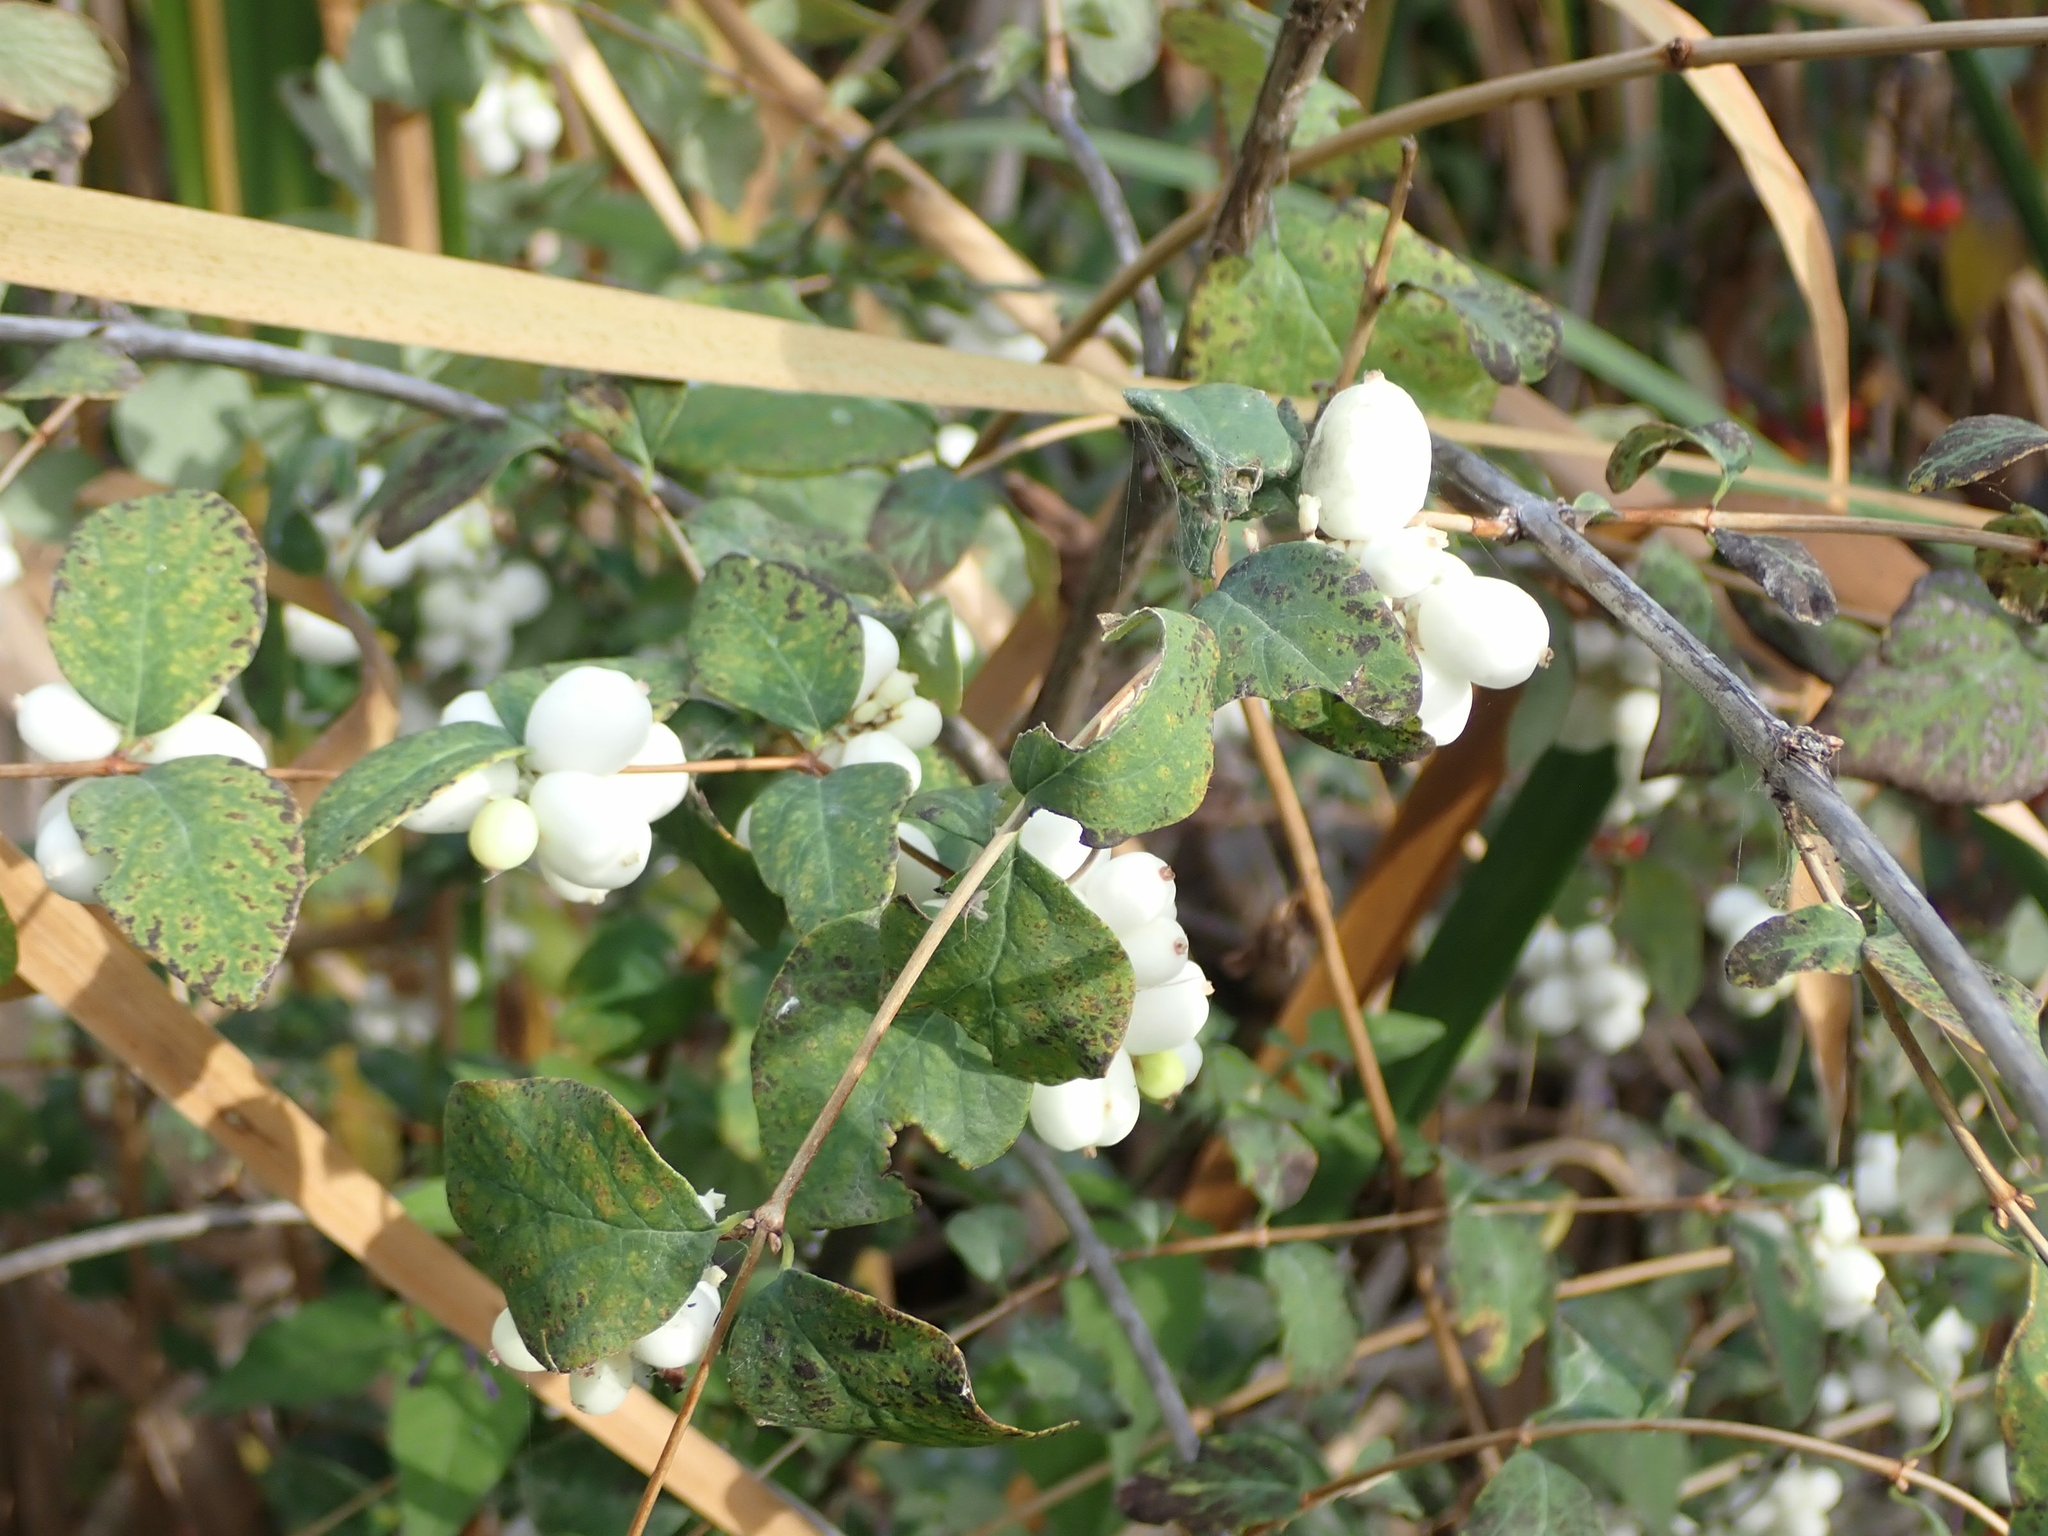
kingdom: Plantae
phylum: Tracheophyta
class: Magnoliopsida
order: Dipsacales
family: Caprifoliaceae
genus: Symphoricarpos
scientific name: Symphoricarpos albus
